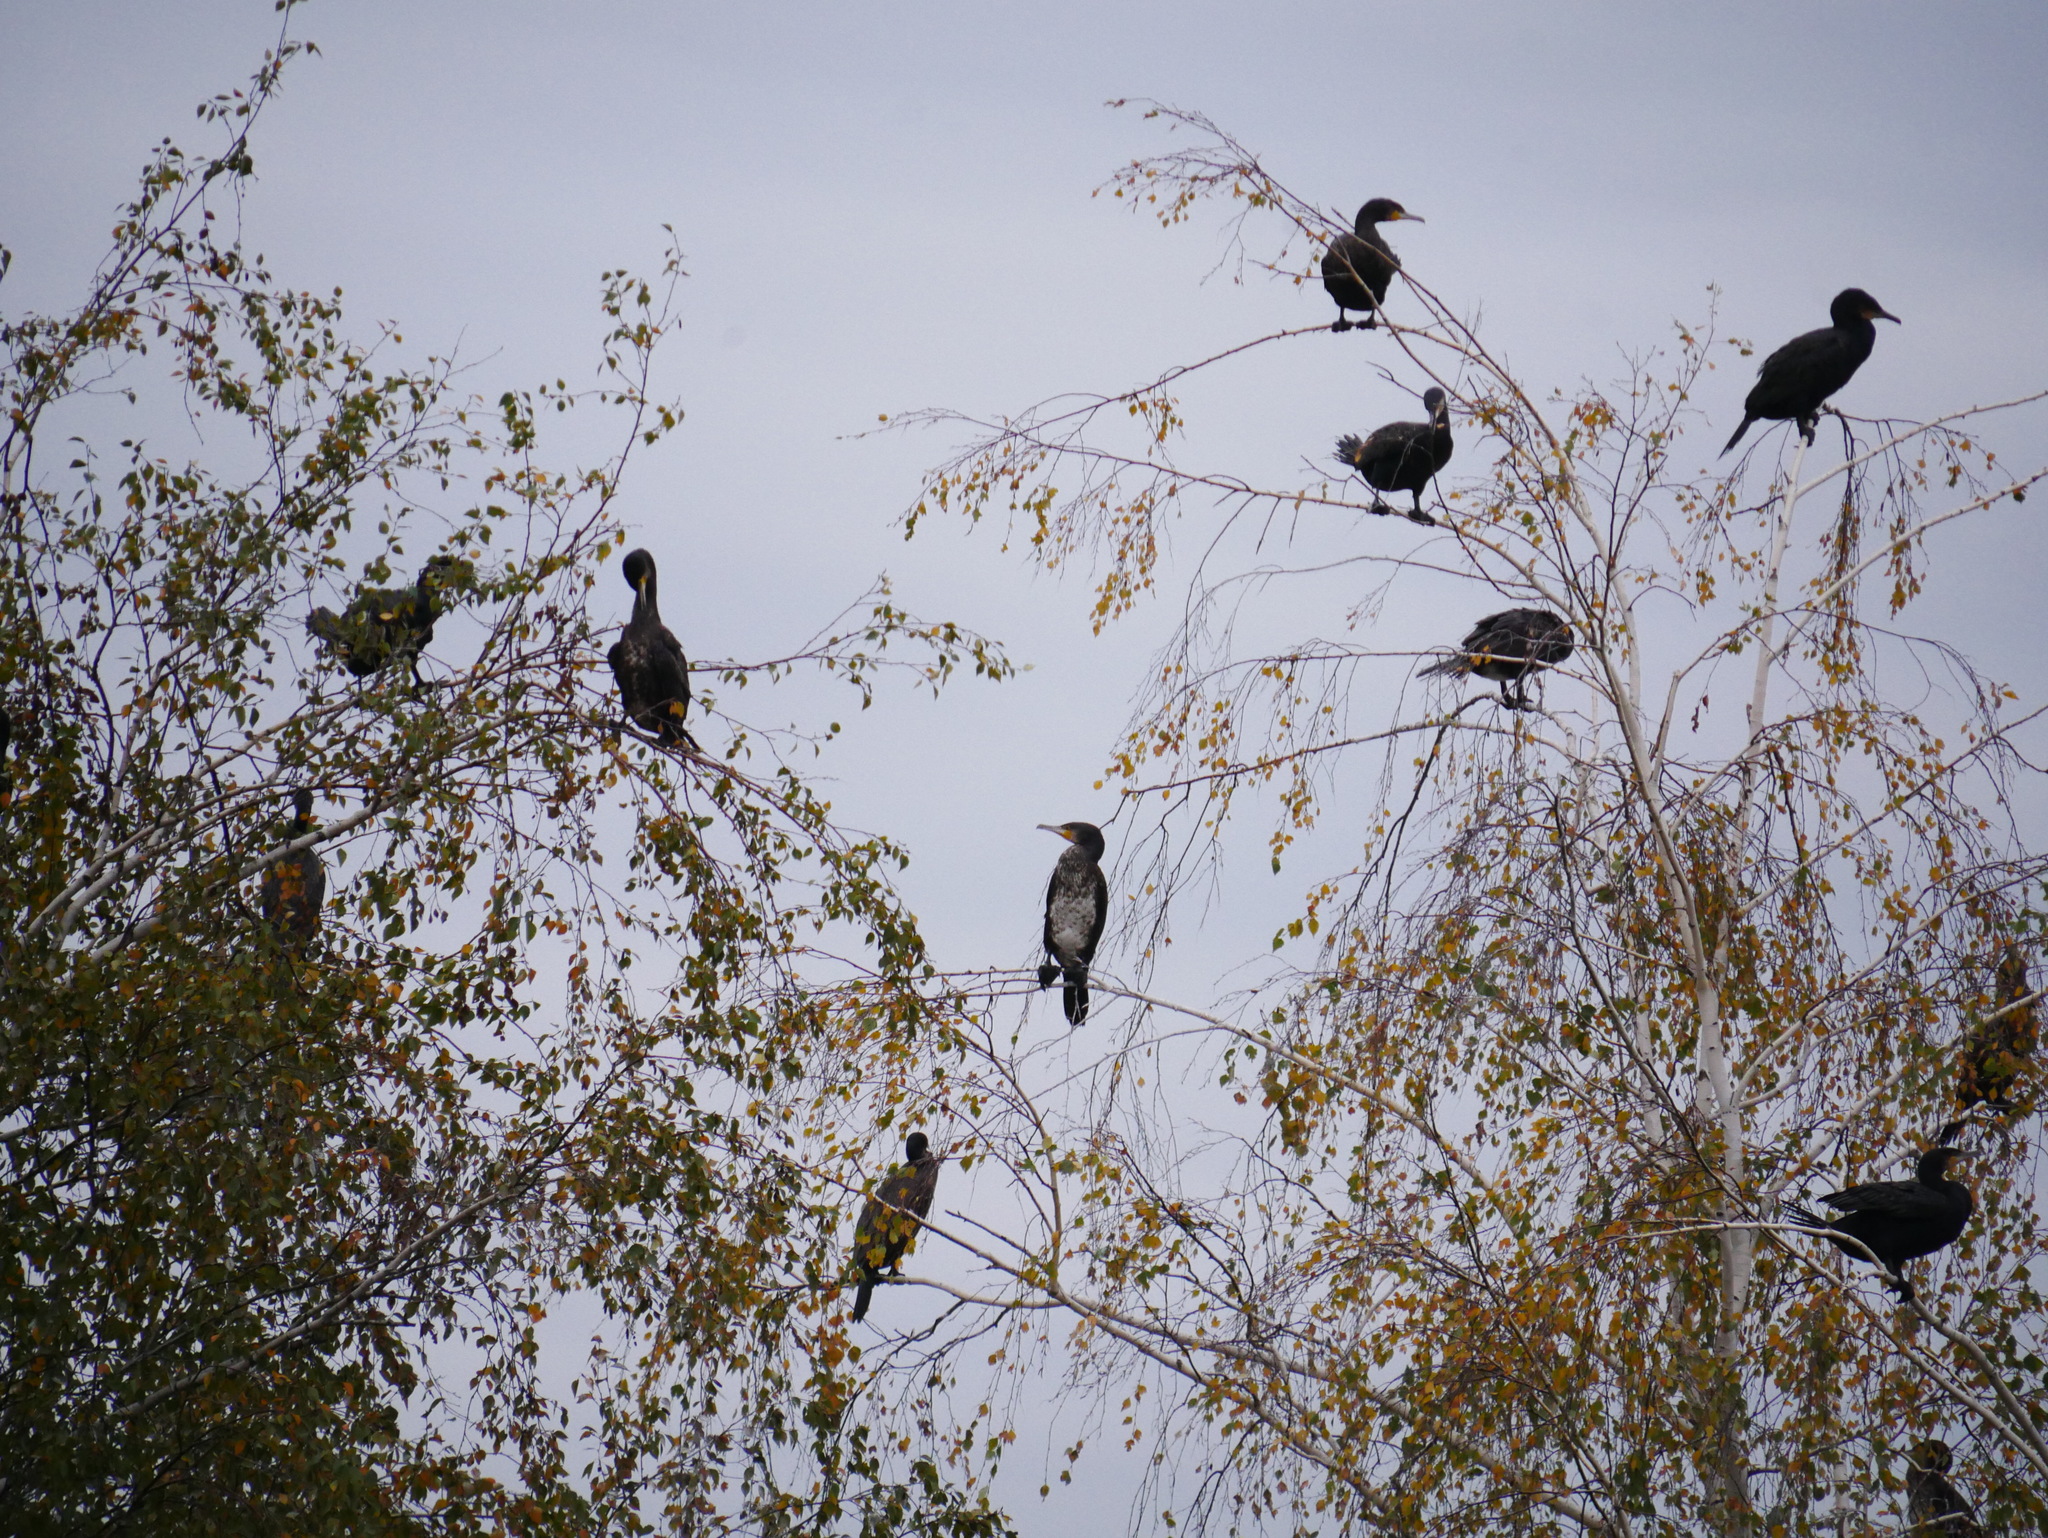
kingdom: Animalia
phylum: Chordata
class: Aves
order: Suliformes
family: Phalacrocoracidae
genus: Phalacrocorax
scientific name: Phalacrocorax carbo
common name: Great cormorant
